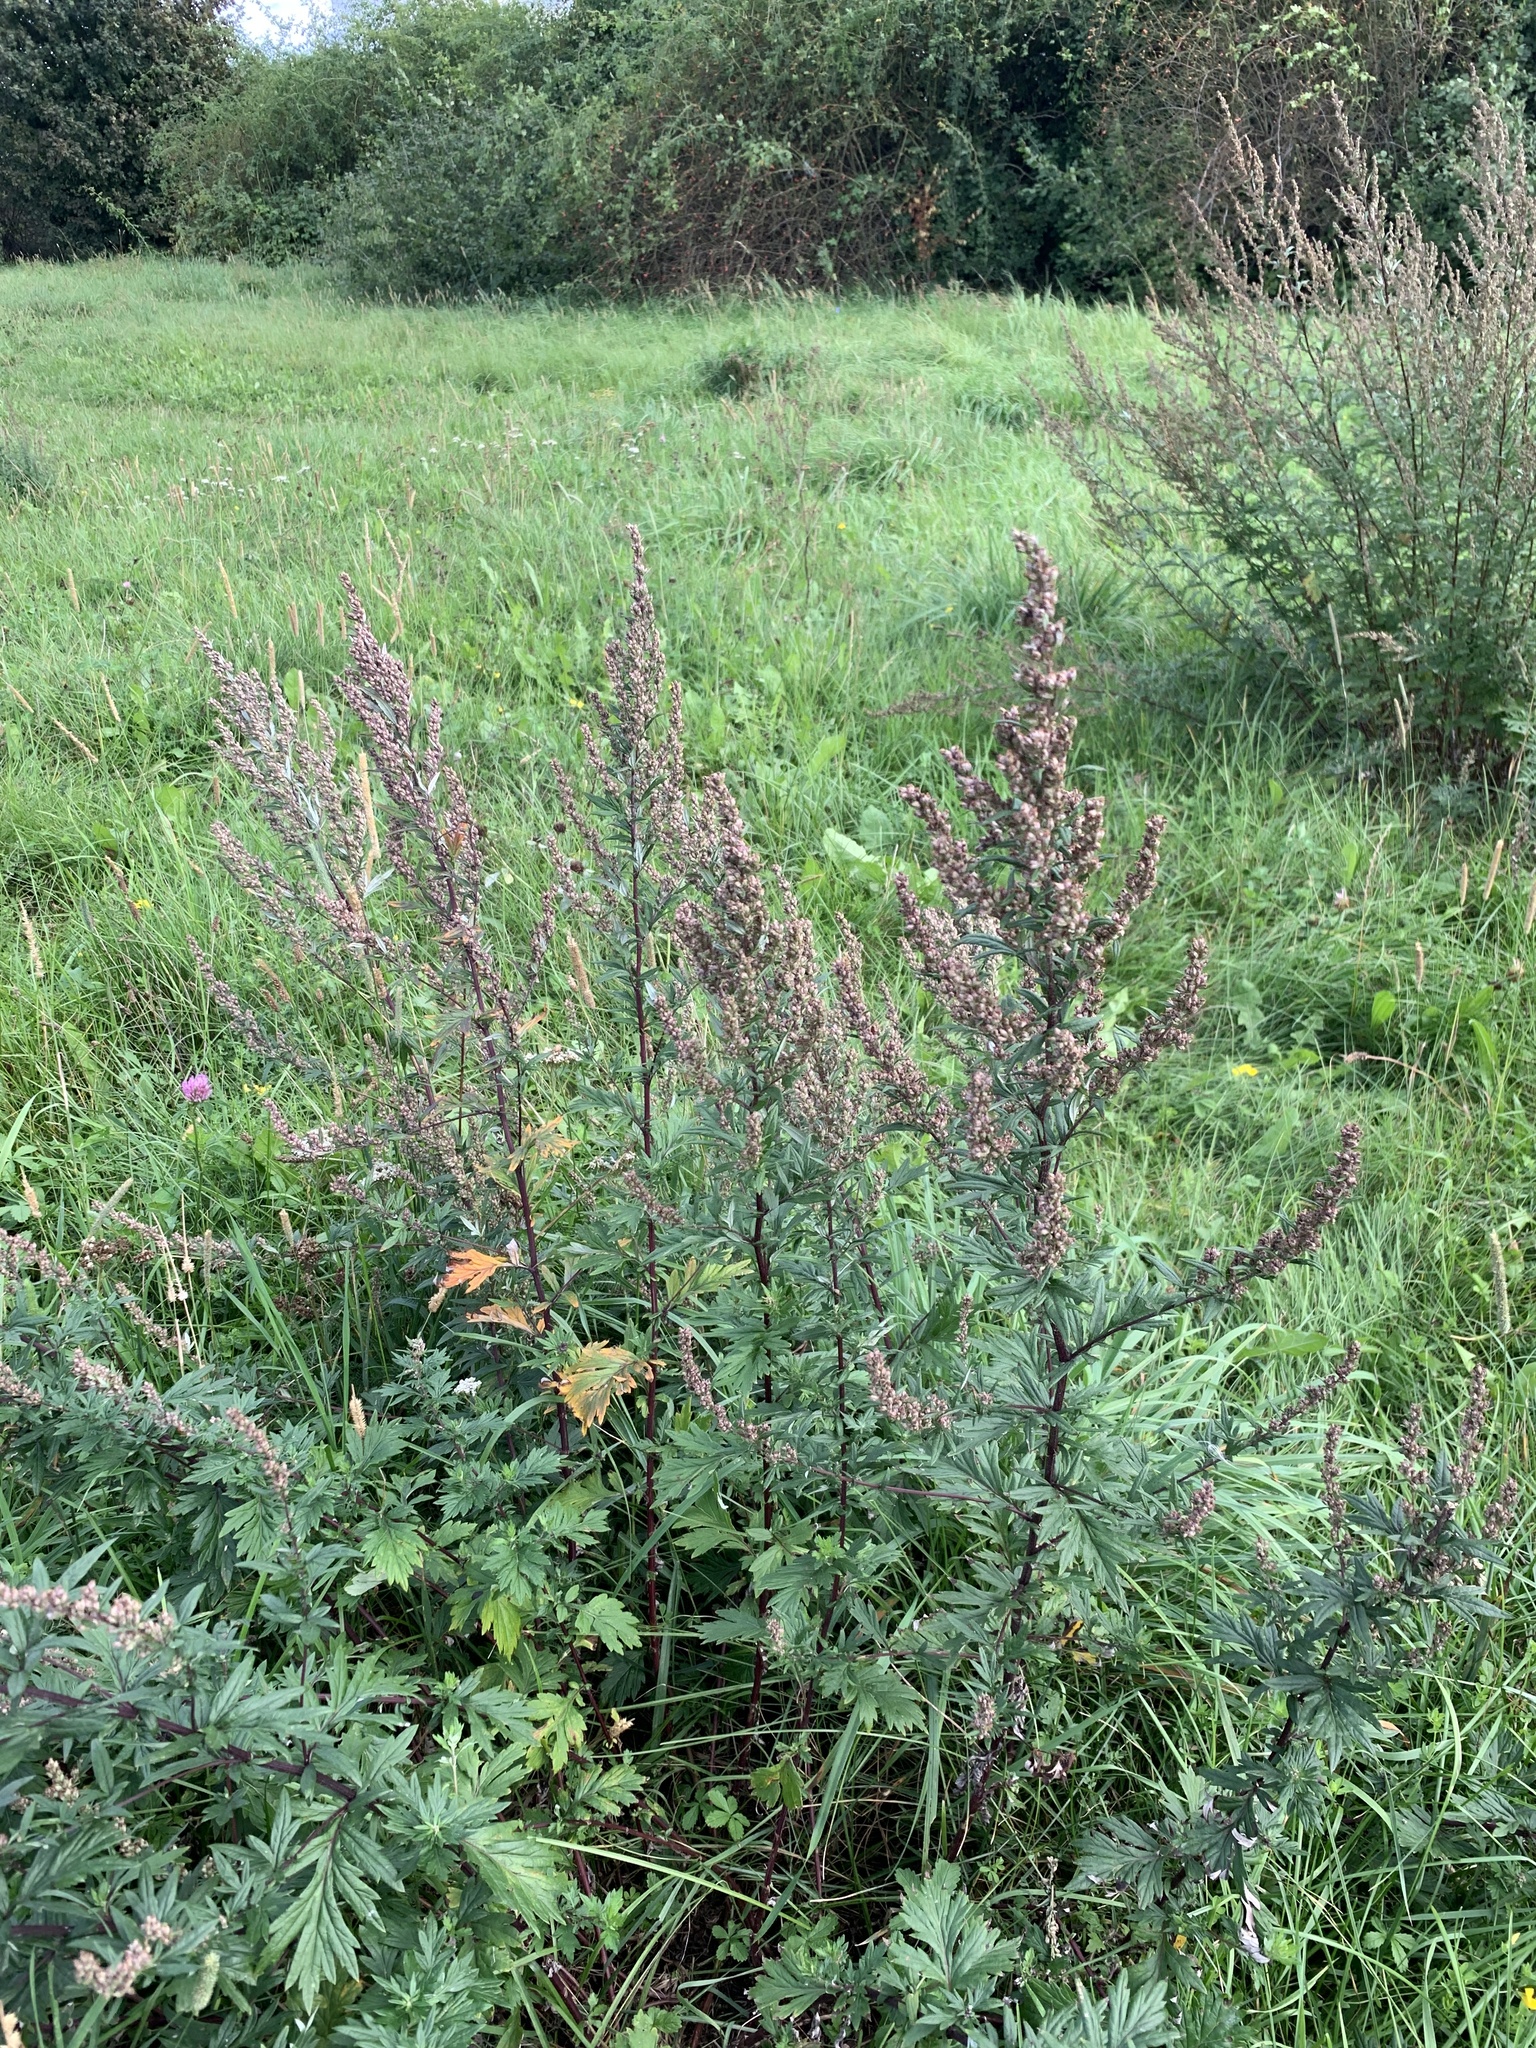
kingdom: Plantae
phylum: Tracheophyta
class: Magnoliopsida
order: Asterales
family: Asteraceae
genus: Artemisia
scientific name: Artemisia vulgaris
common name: Mugwort
